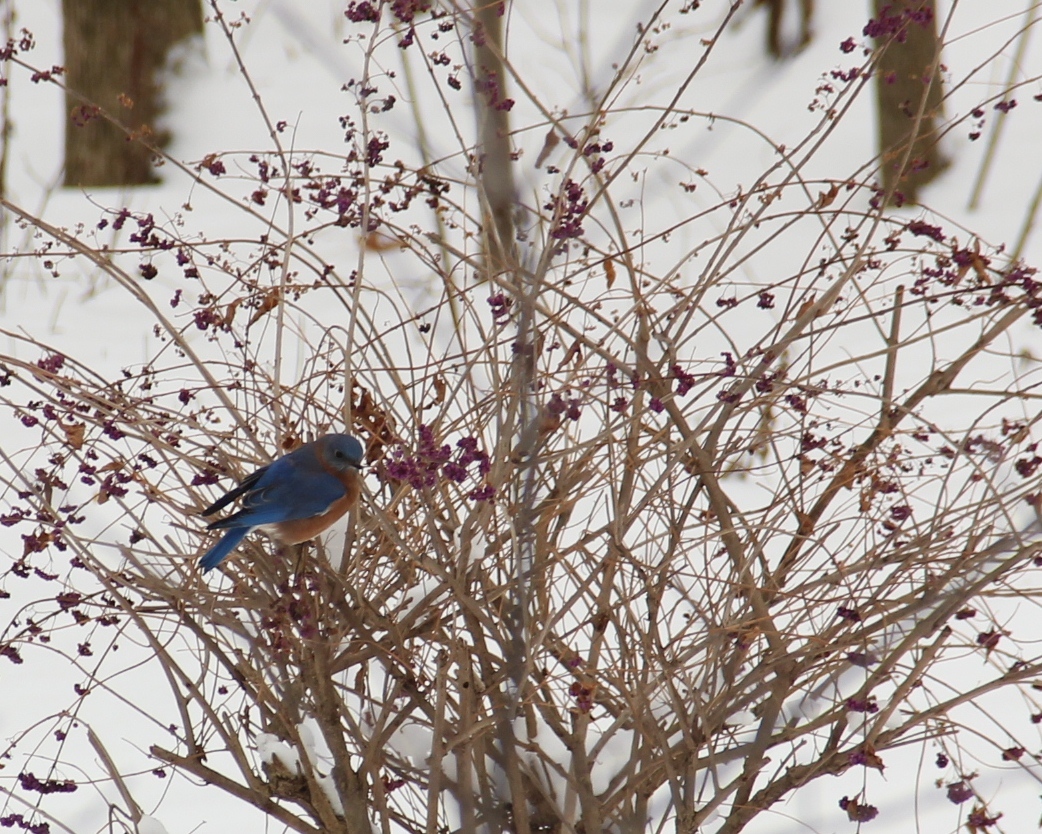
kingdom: Animalia
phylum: Chordata
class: Aves
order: Passeriformes
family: Turdidae
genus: Sialia
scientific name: Sialia sialis
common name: Eastern bluebird
